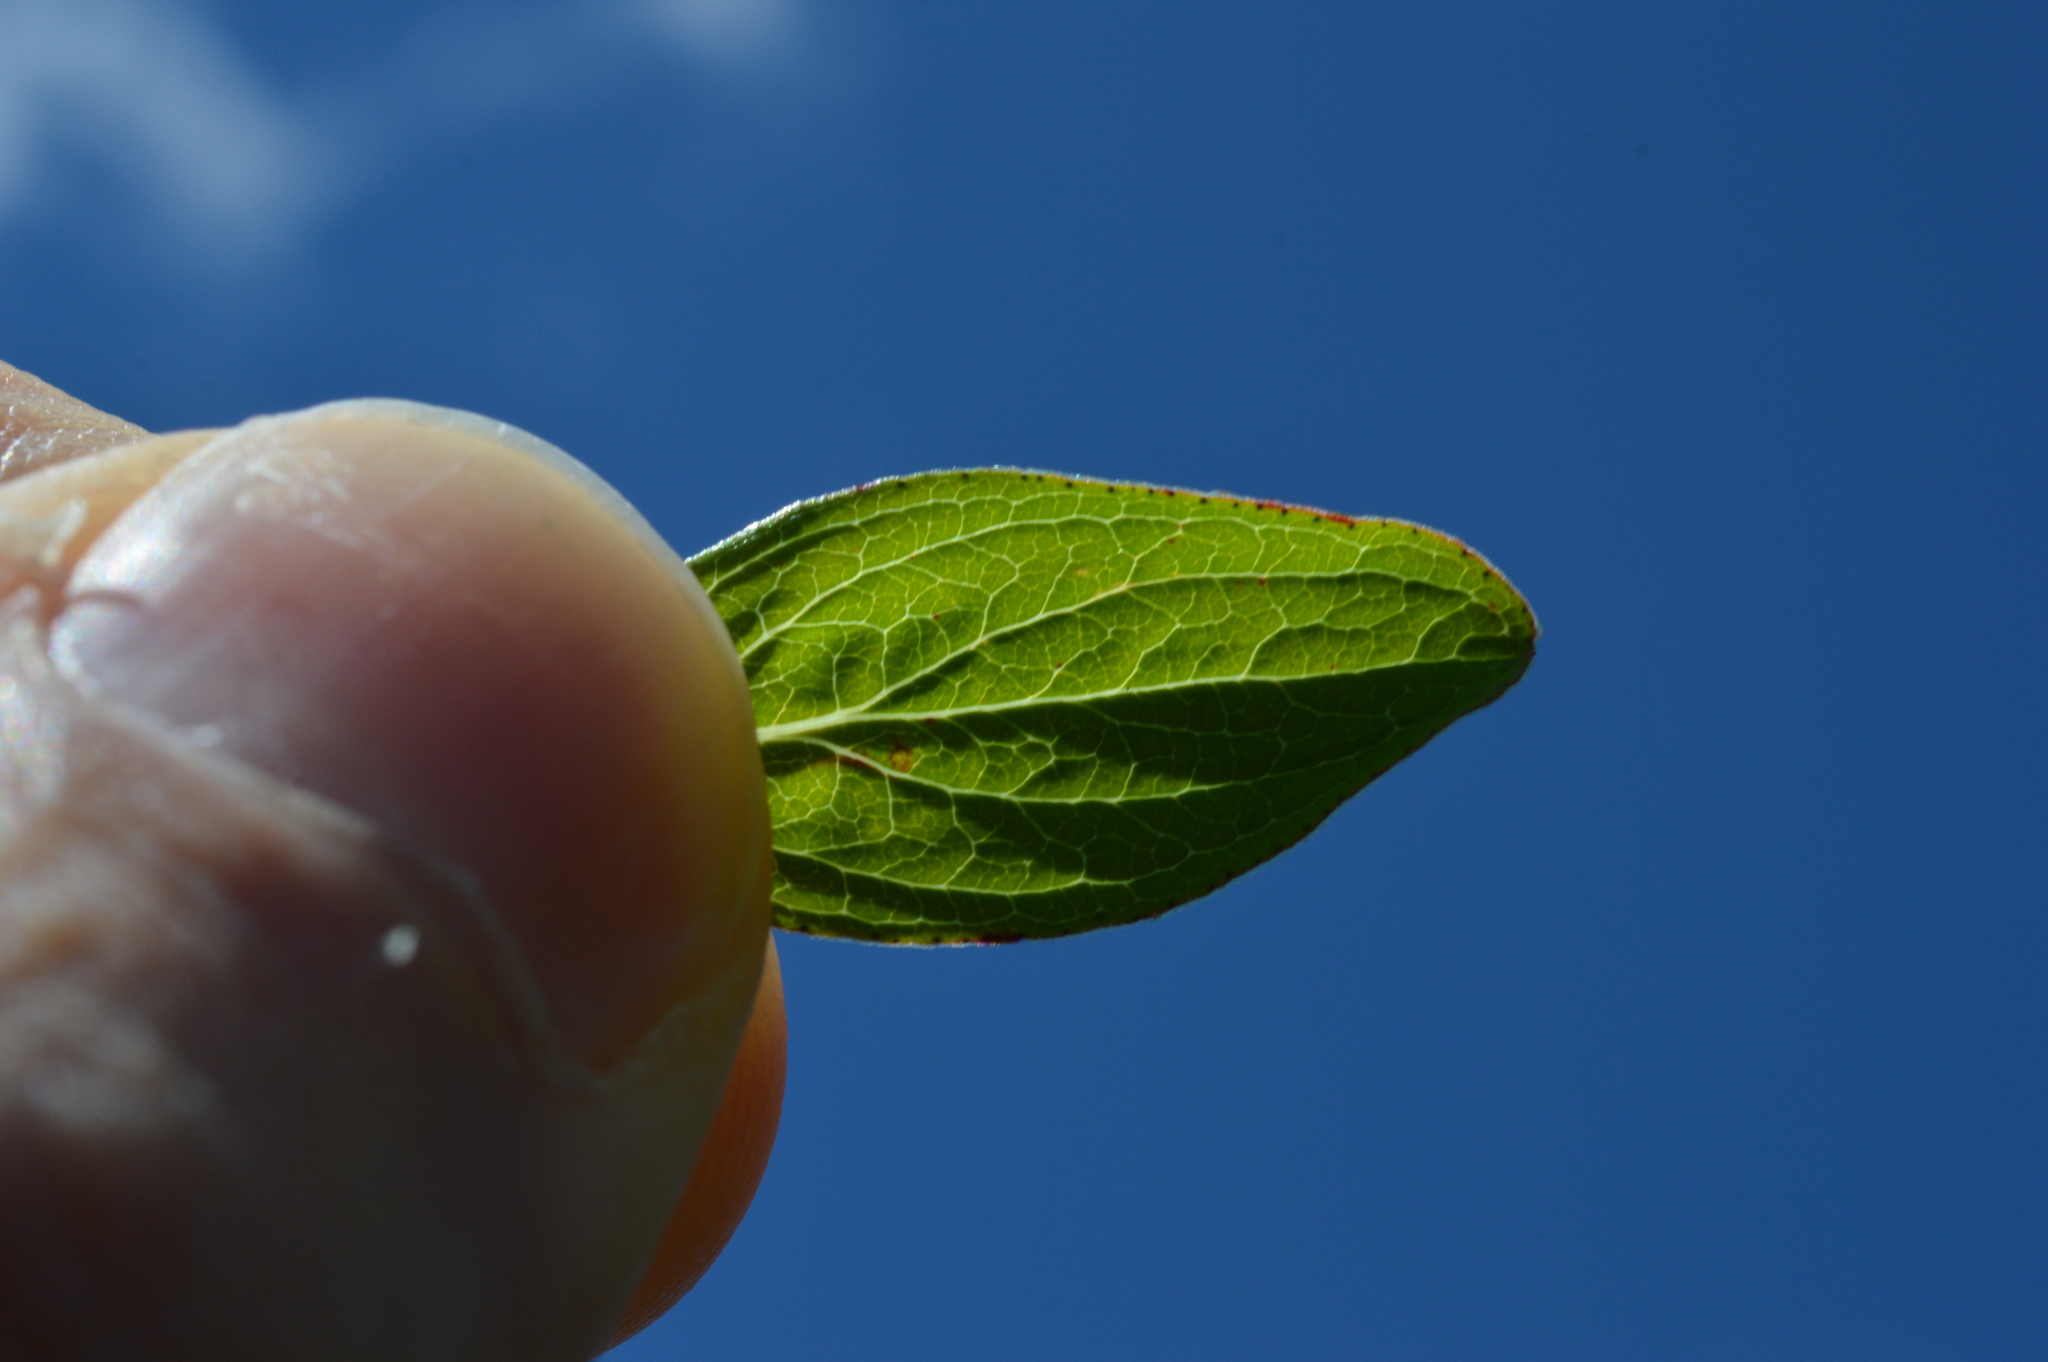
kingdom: Plantae
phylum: Tracheophyta
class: Magnoliopsida
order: Malpighiales
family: Hypericaceae
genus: Hypericum
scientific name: Hypericum maculatum
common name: Imperforate st. john's-wort
